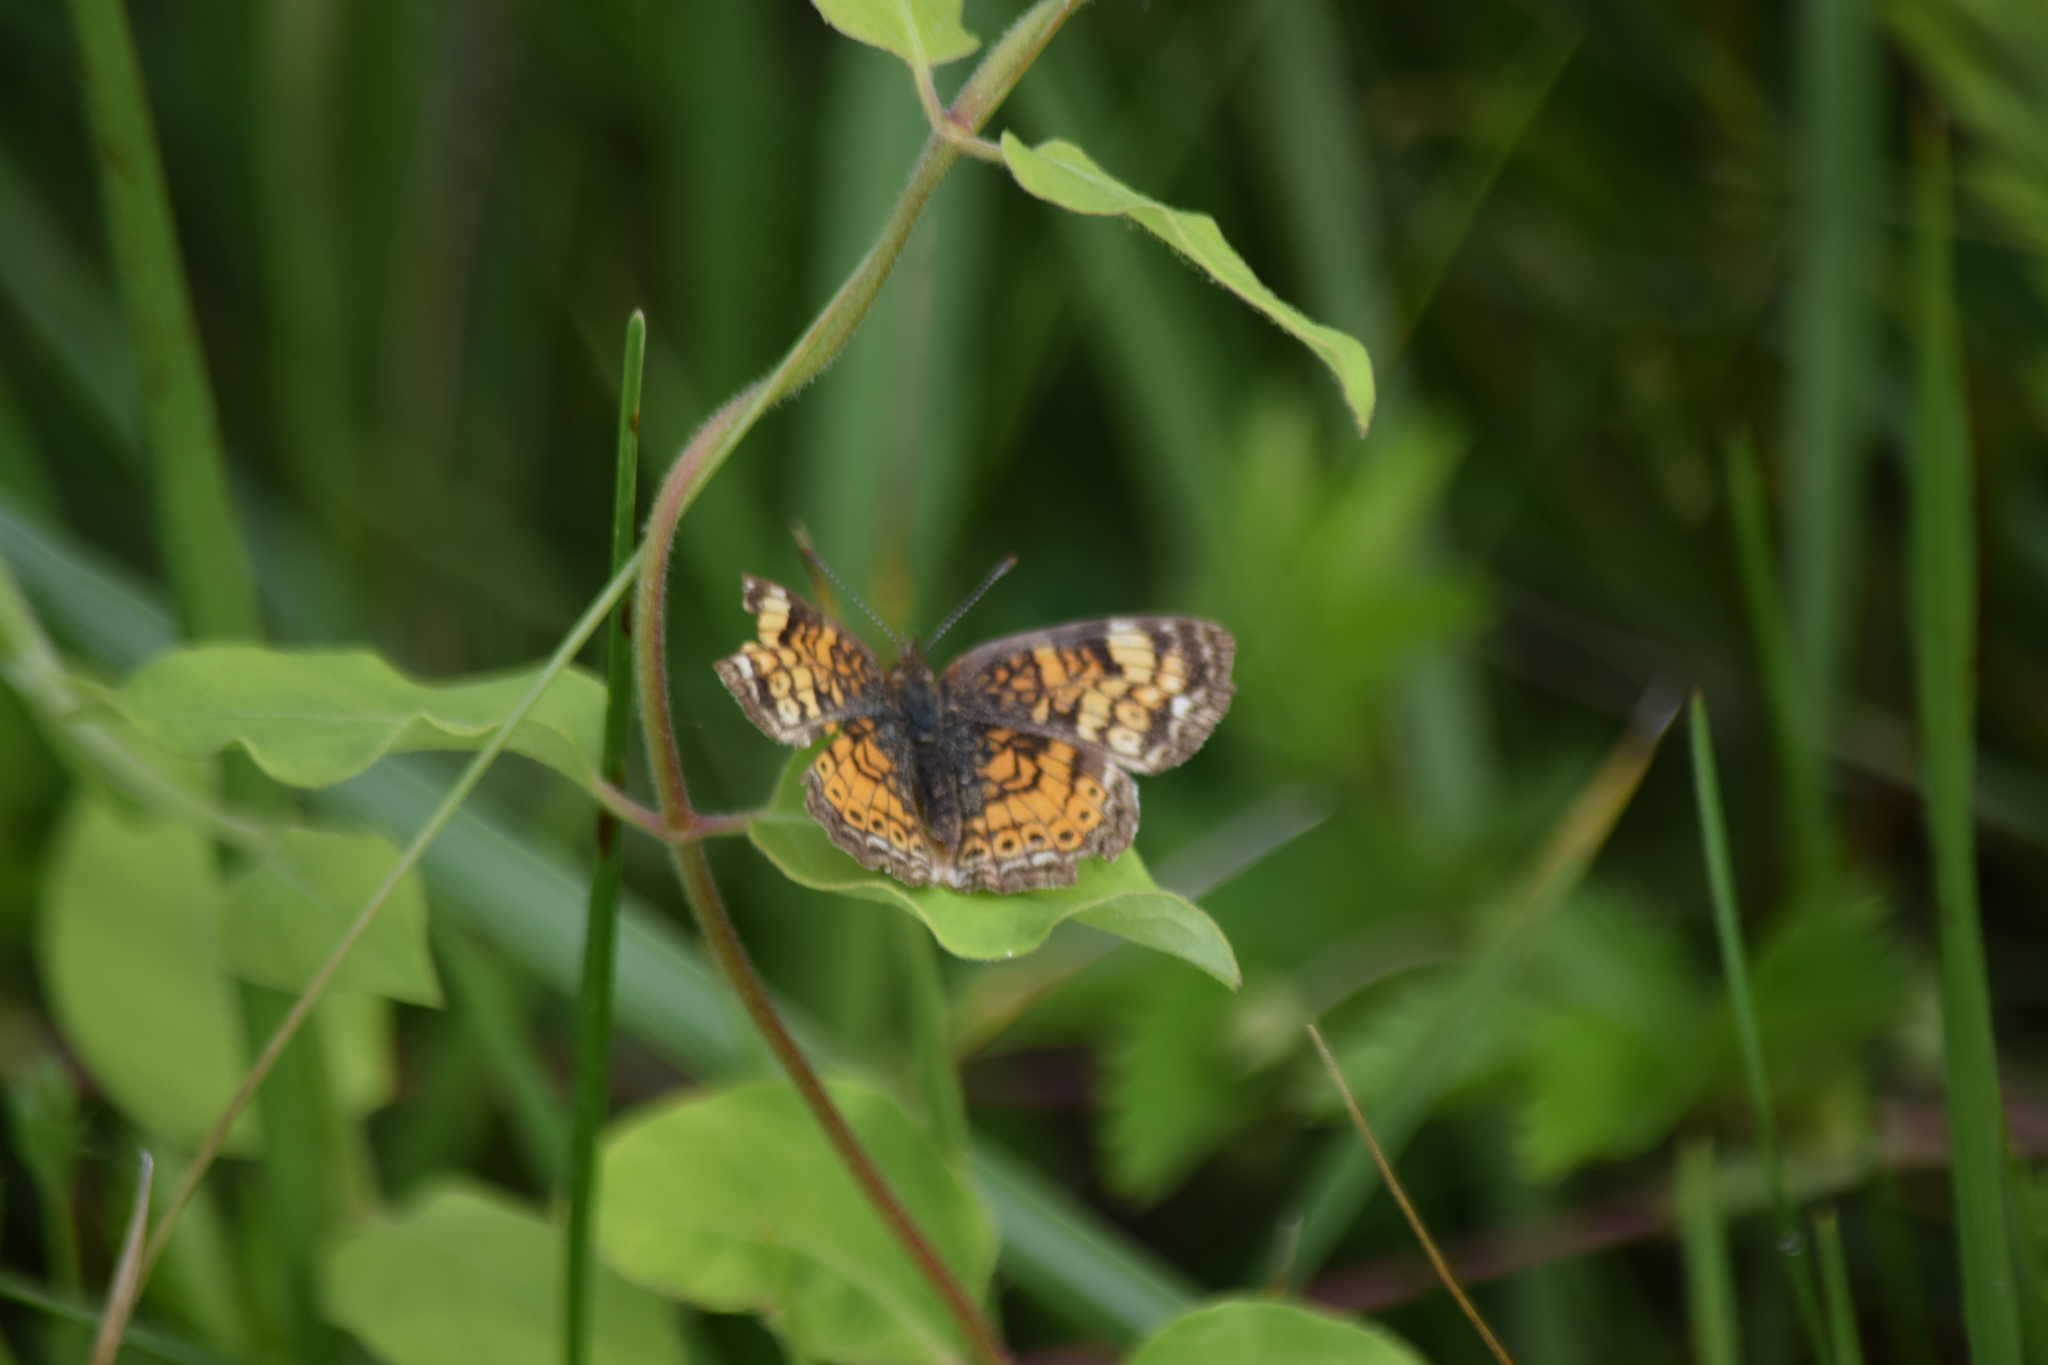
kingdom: Animalia
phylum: Arthropoda
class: Insecta
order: Lepidoptera
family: Nymphalidae
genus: Phyciodes
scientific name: Phyciodes tharos
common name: Pearl crescent
